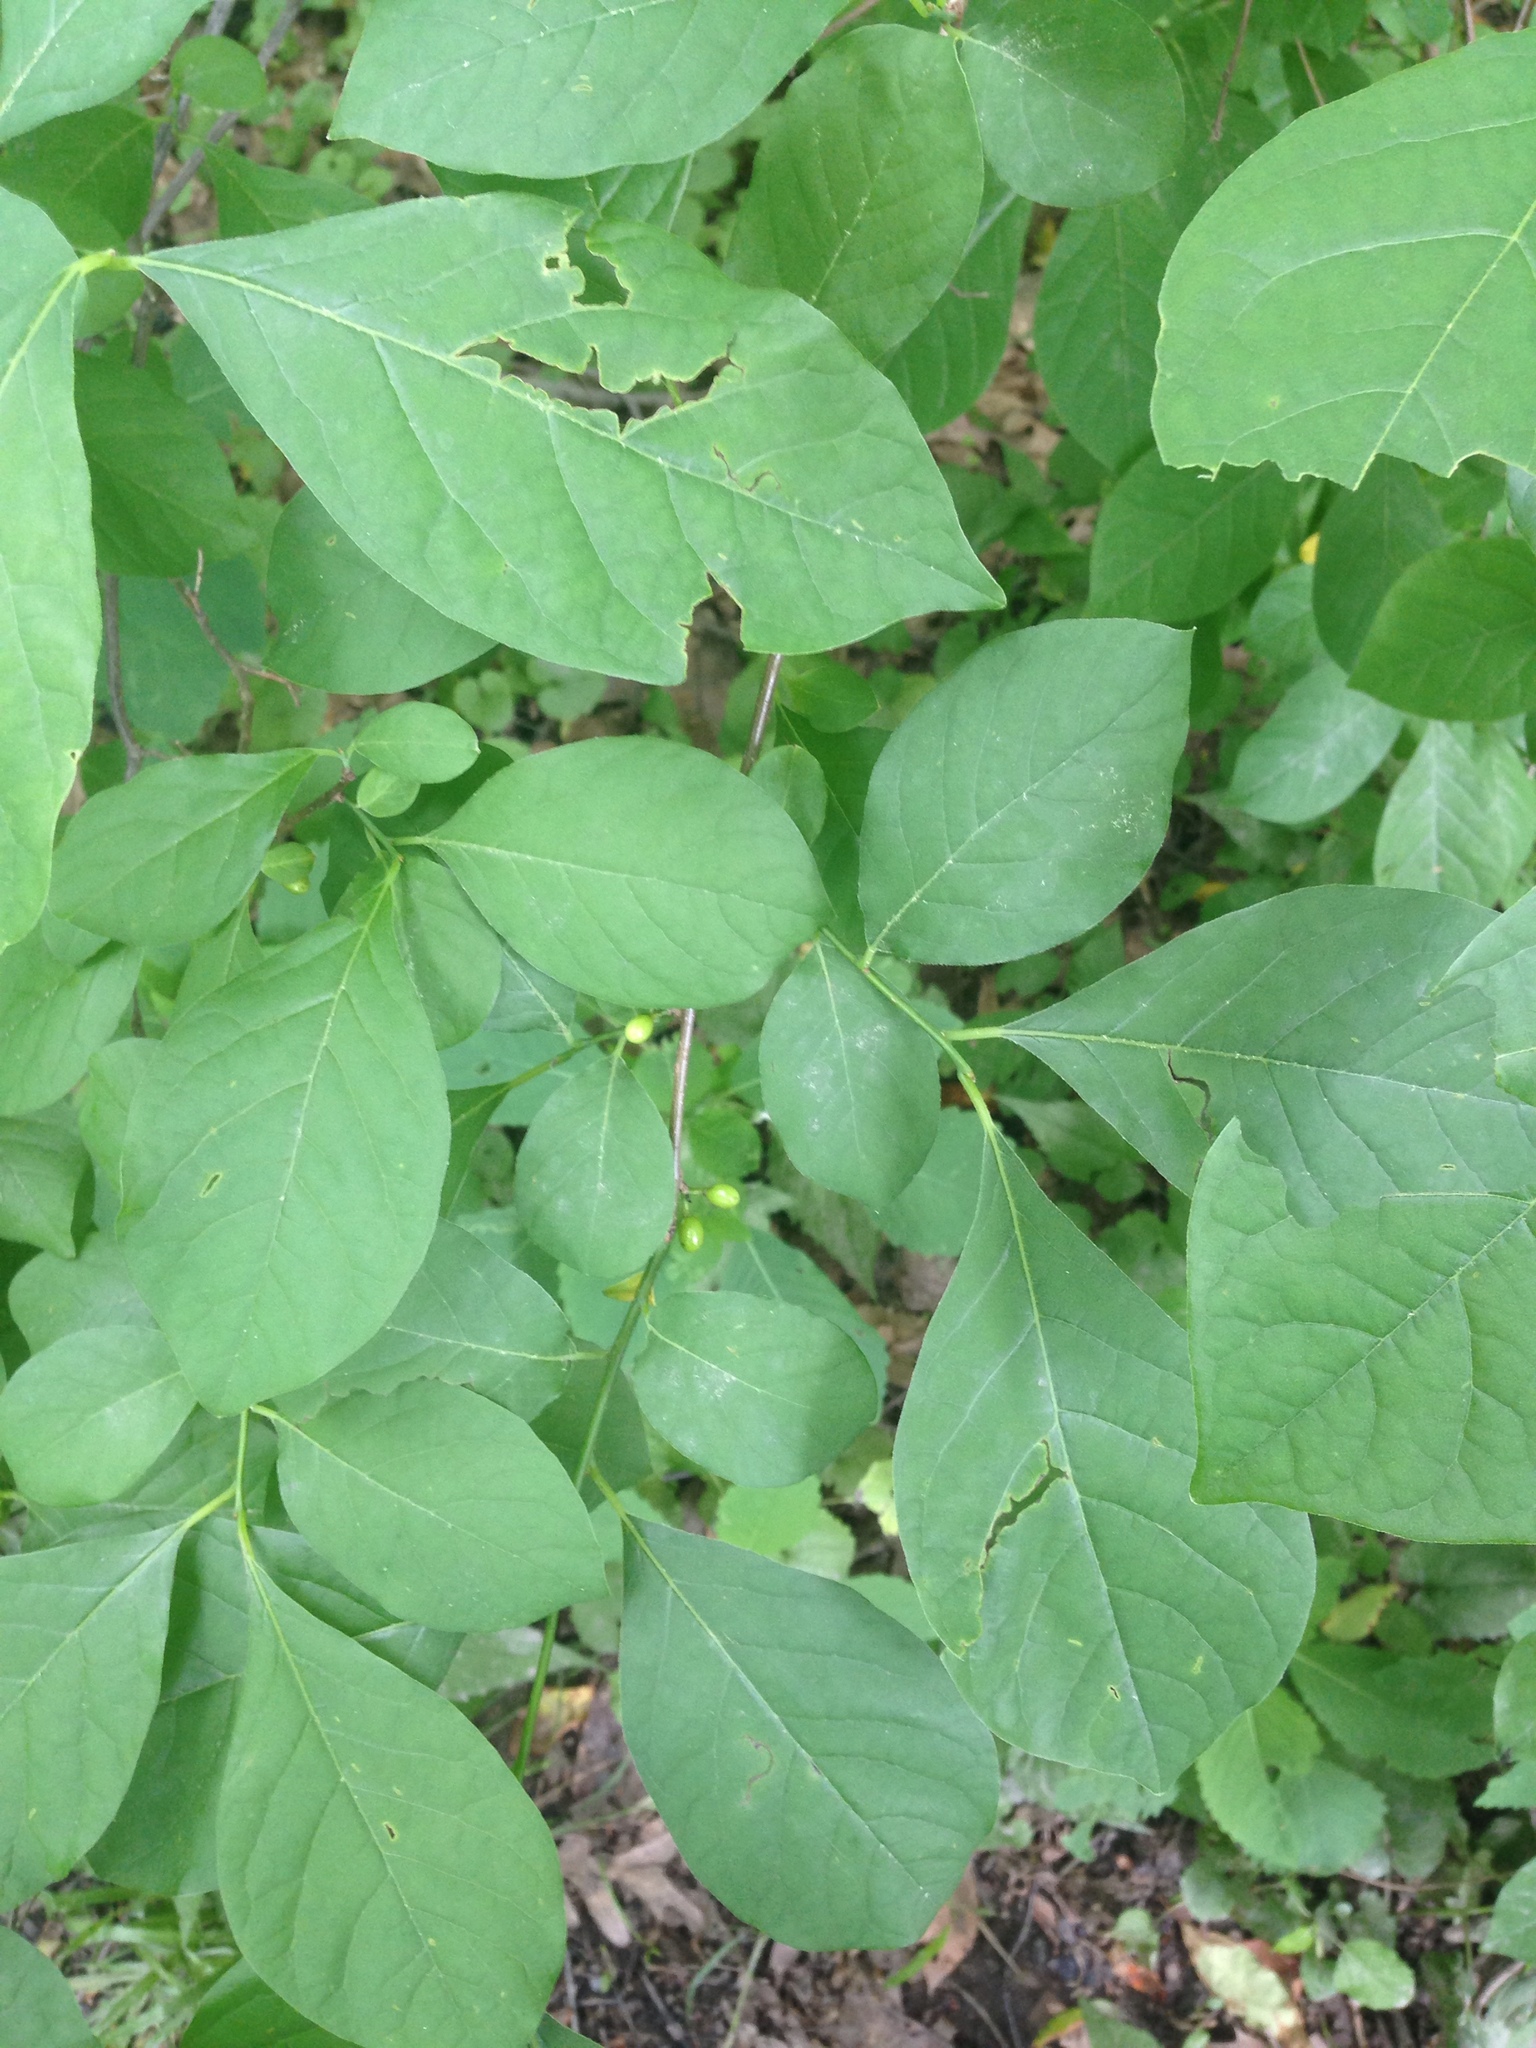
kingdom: Plantae
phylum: Tracheophyta
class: Magnoliopsida
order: Laurales
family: Lauraceae
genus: Lindera
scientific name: Lindera benzoin
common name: Spicebush
